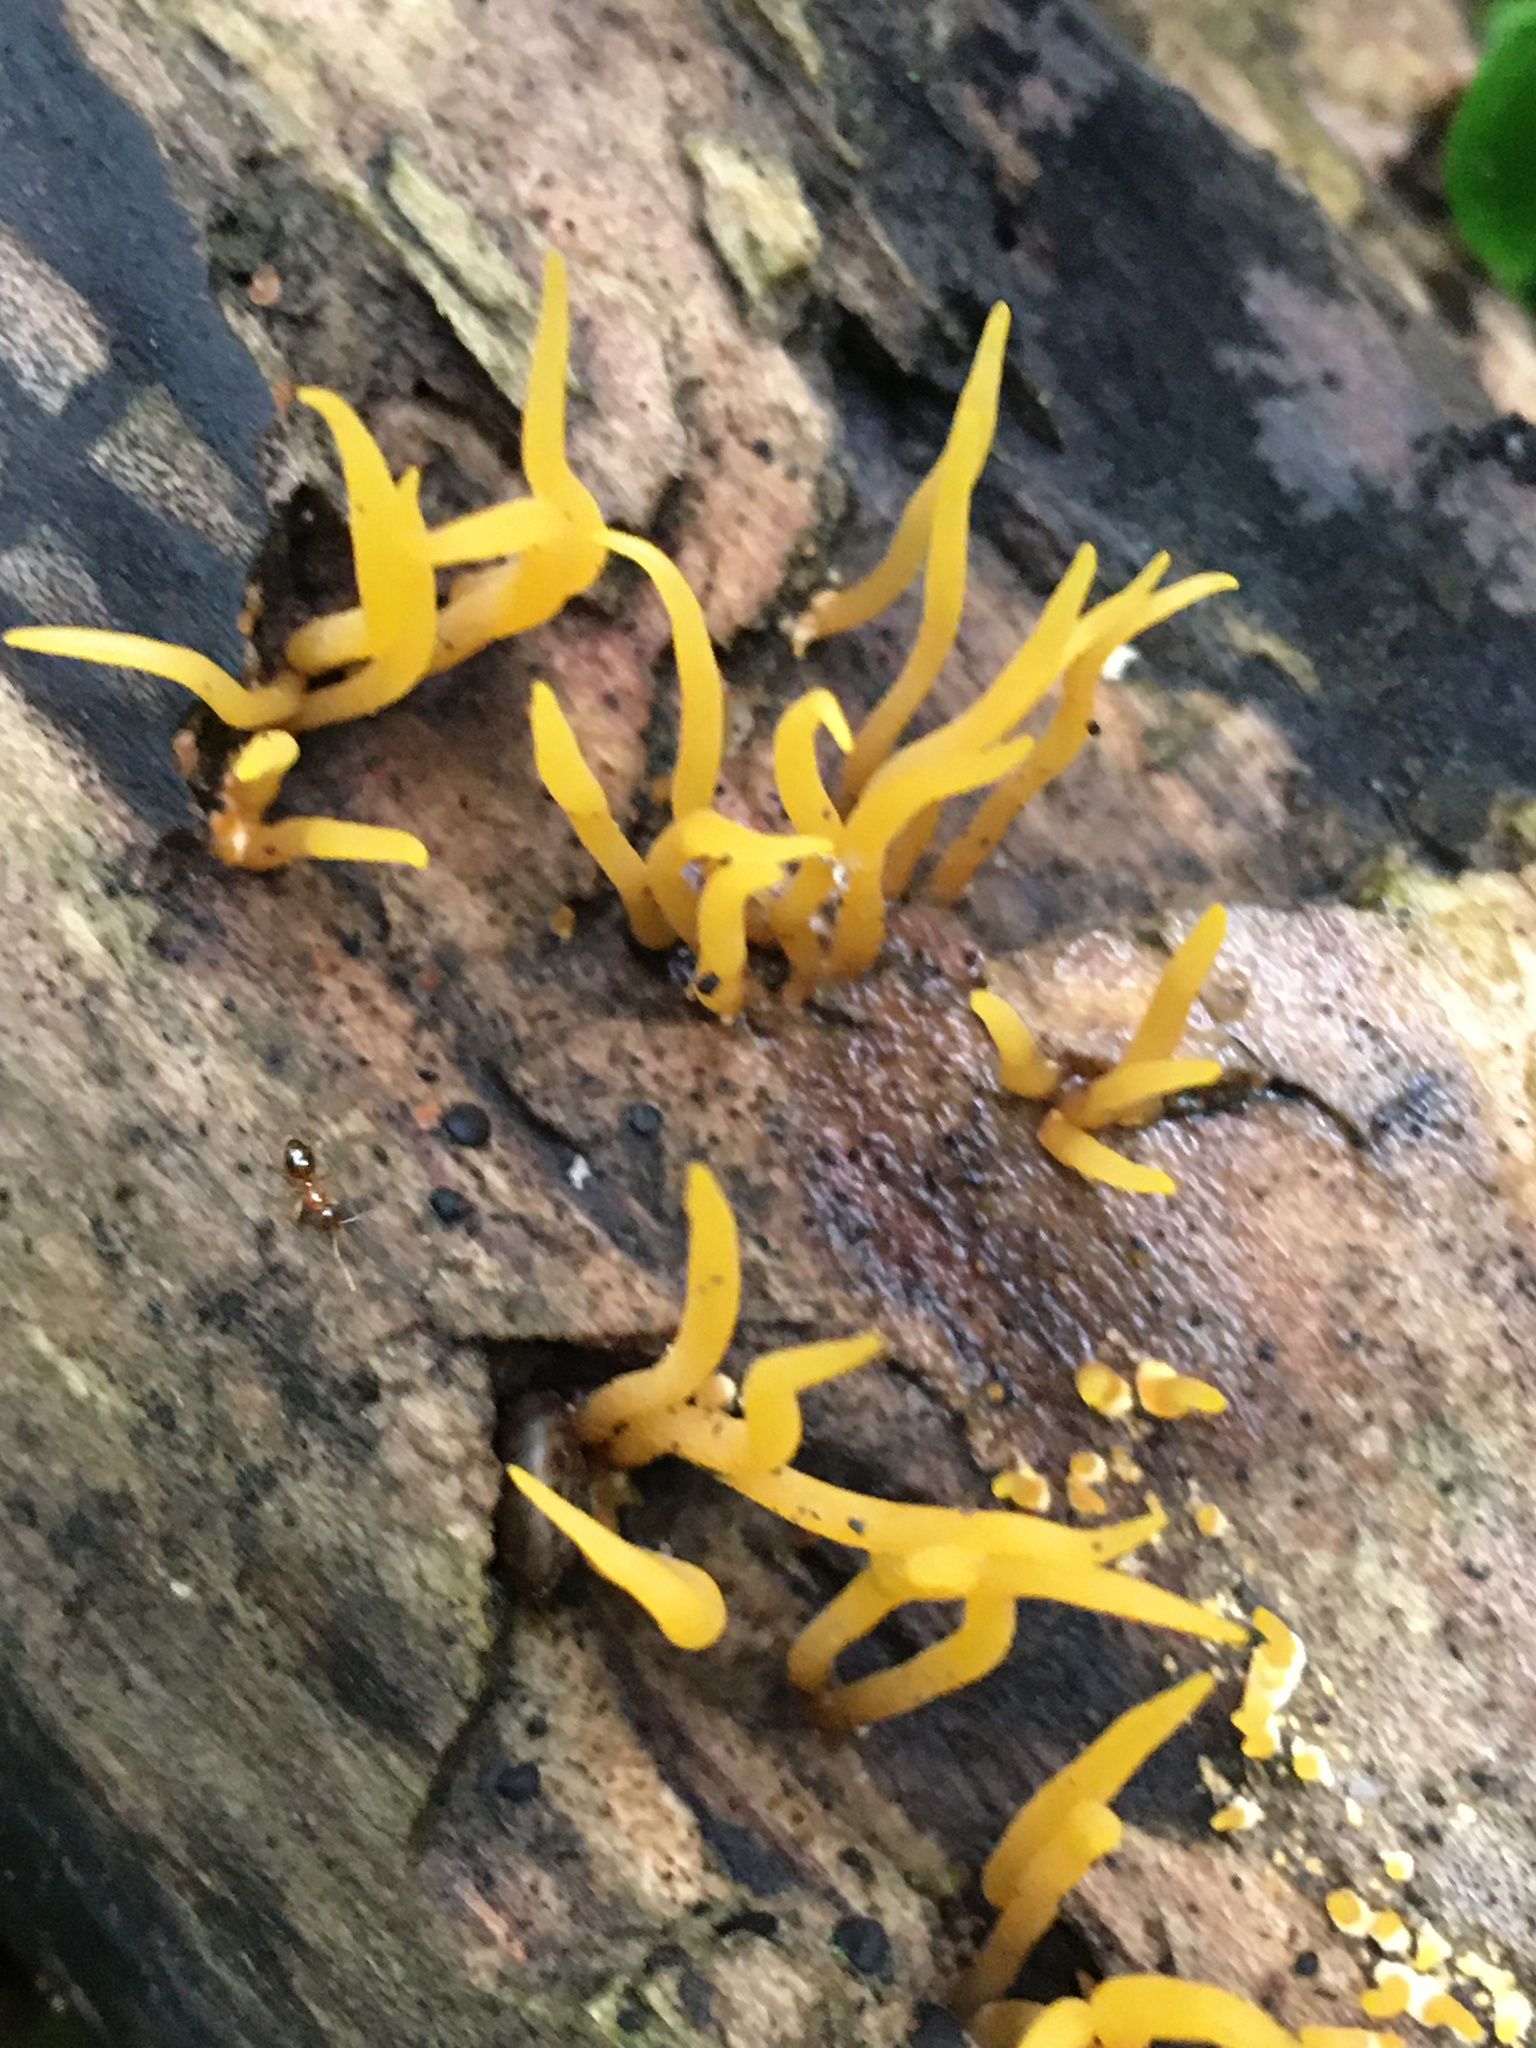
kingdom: Fungi
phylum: Basidiomycota
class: Dacrymycetes
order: Dacrymycetales
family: Dacrymycetaceae
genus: Calocera
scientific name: Calocera cornea
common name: Small stagshorn
